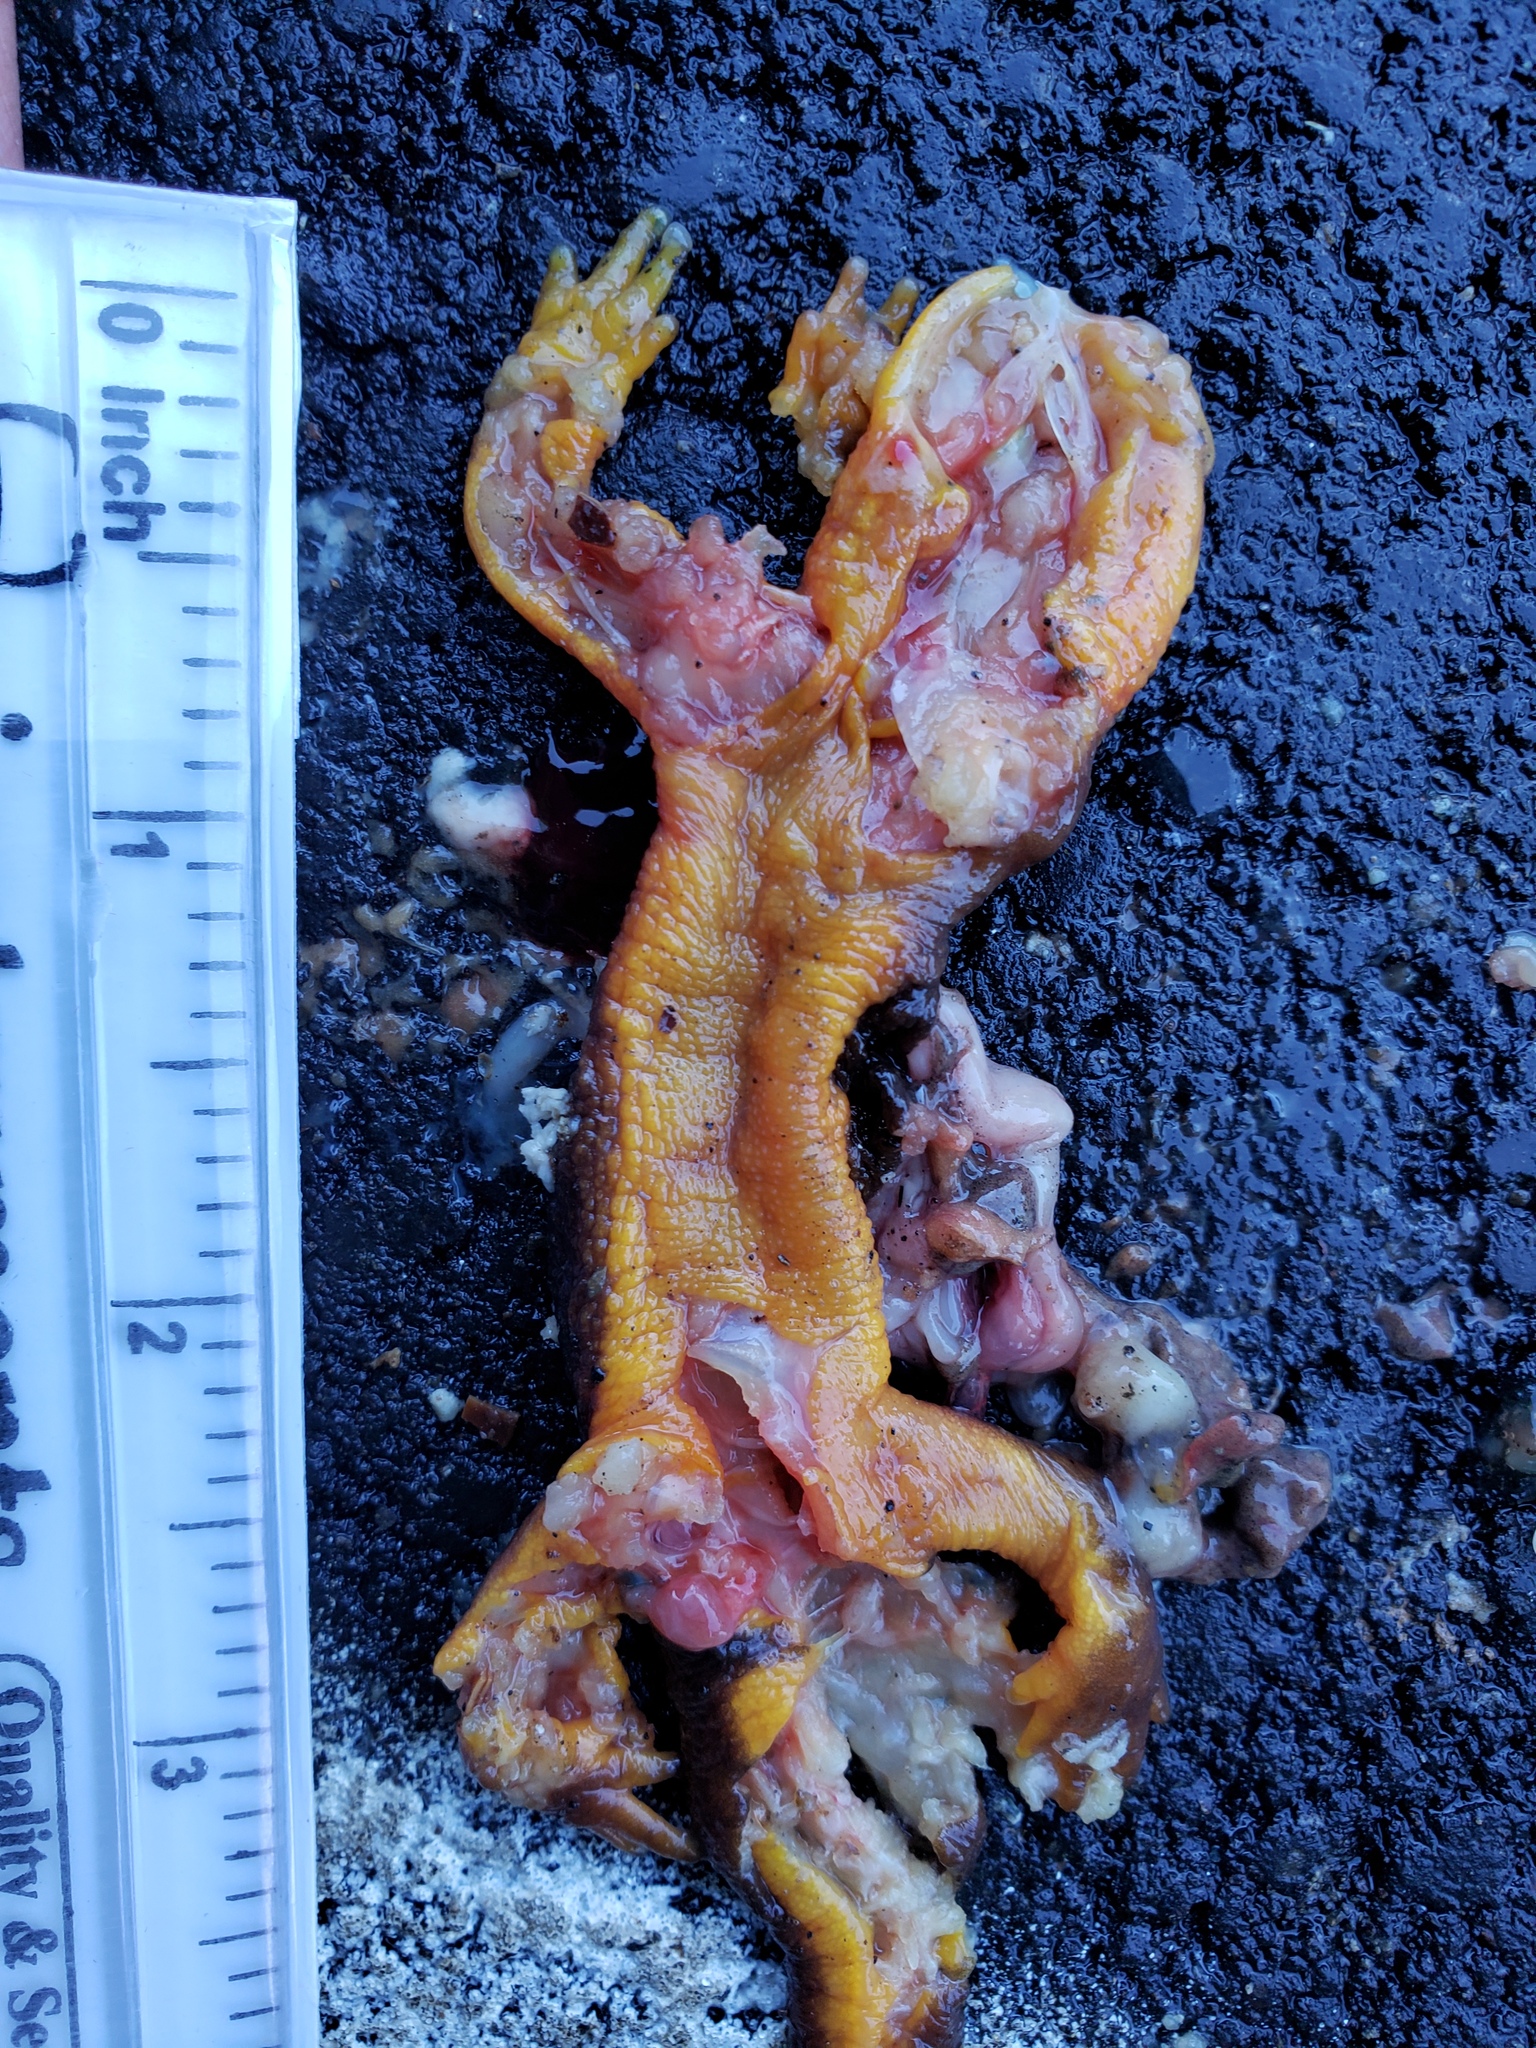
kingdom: Animalia
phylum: Chordata
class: Amphibia
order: Caudata
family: Salamandridae
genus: Taricha
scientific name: Taricha
